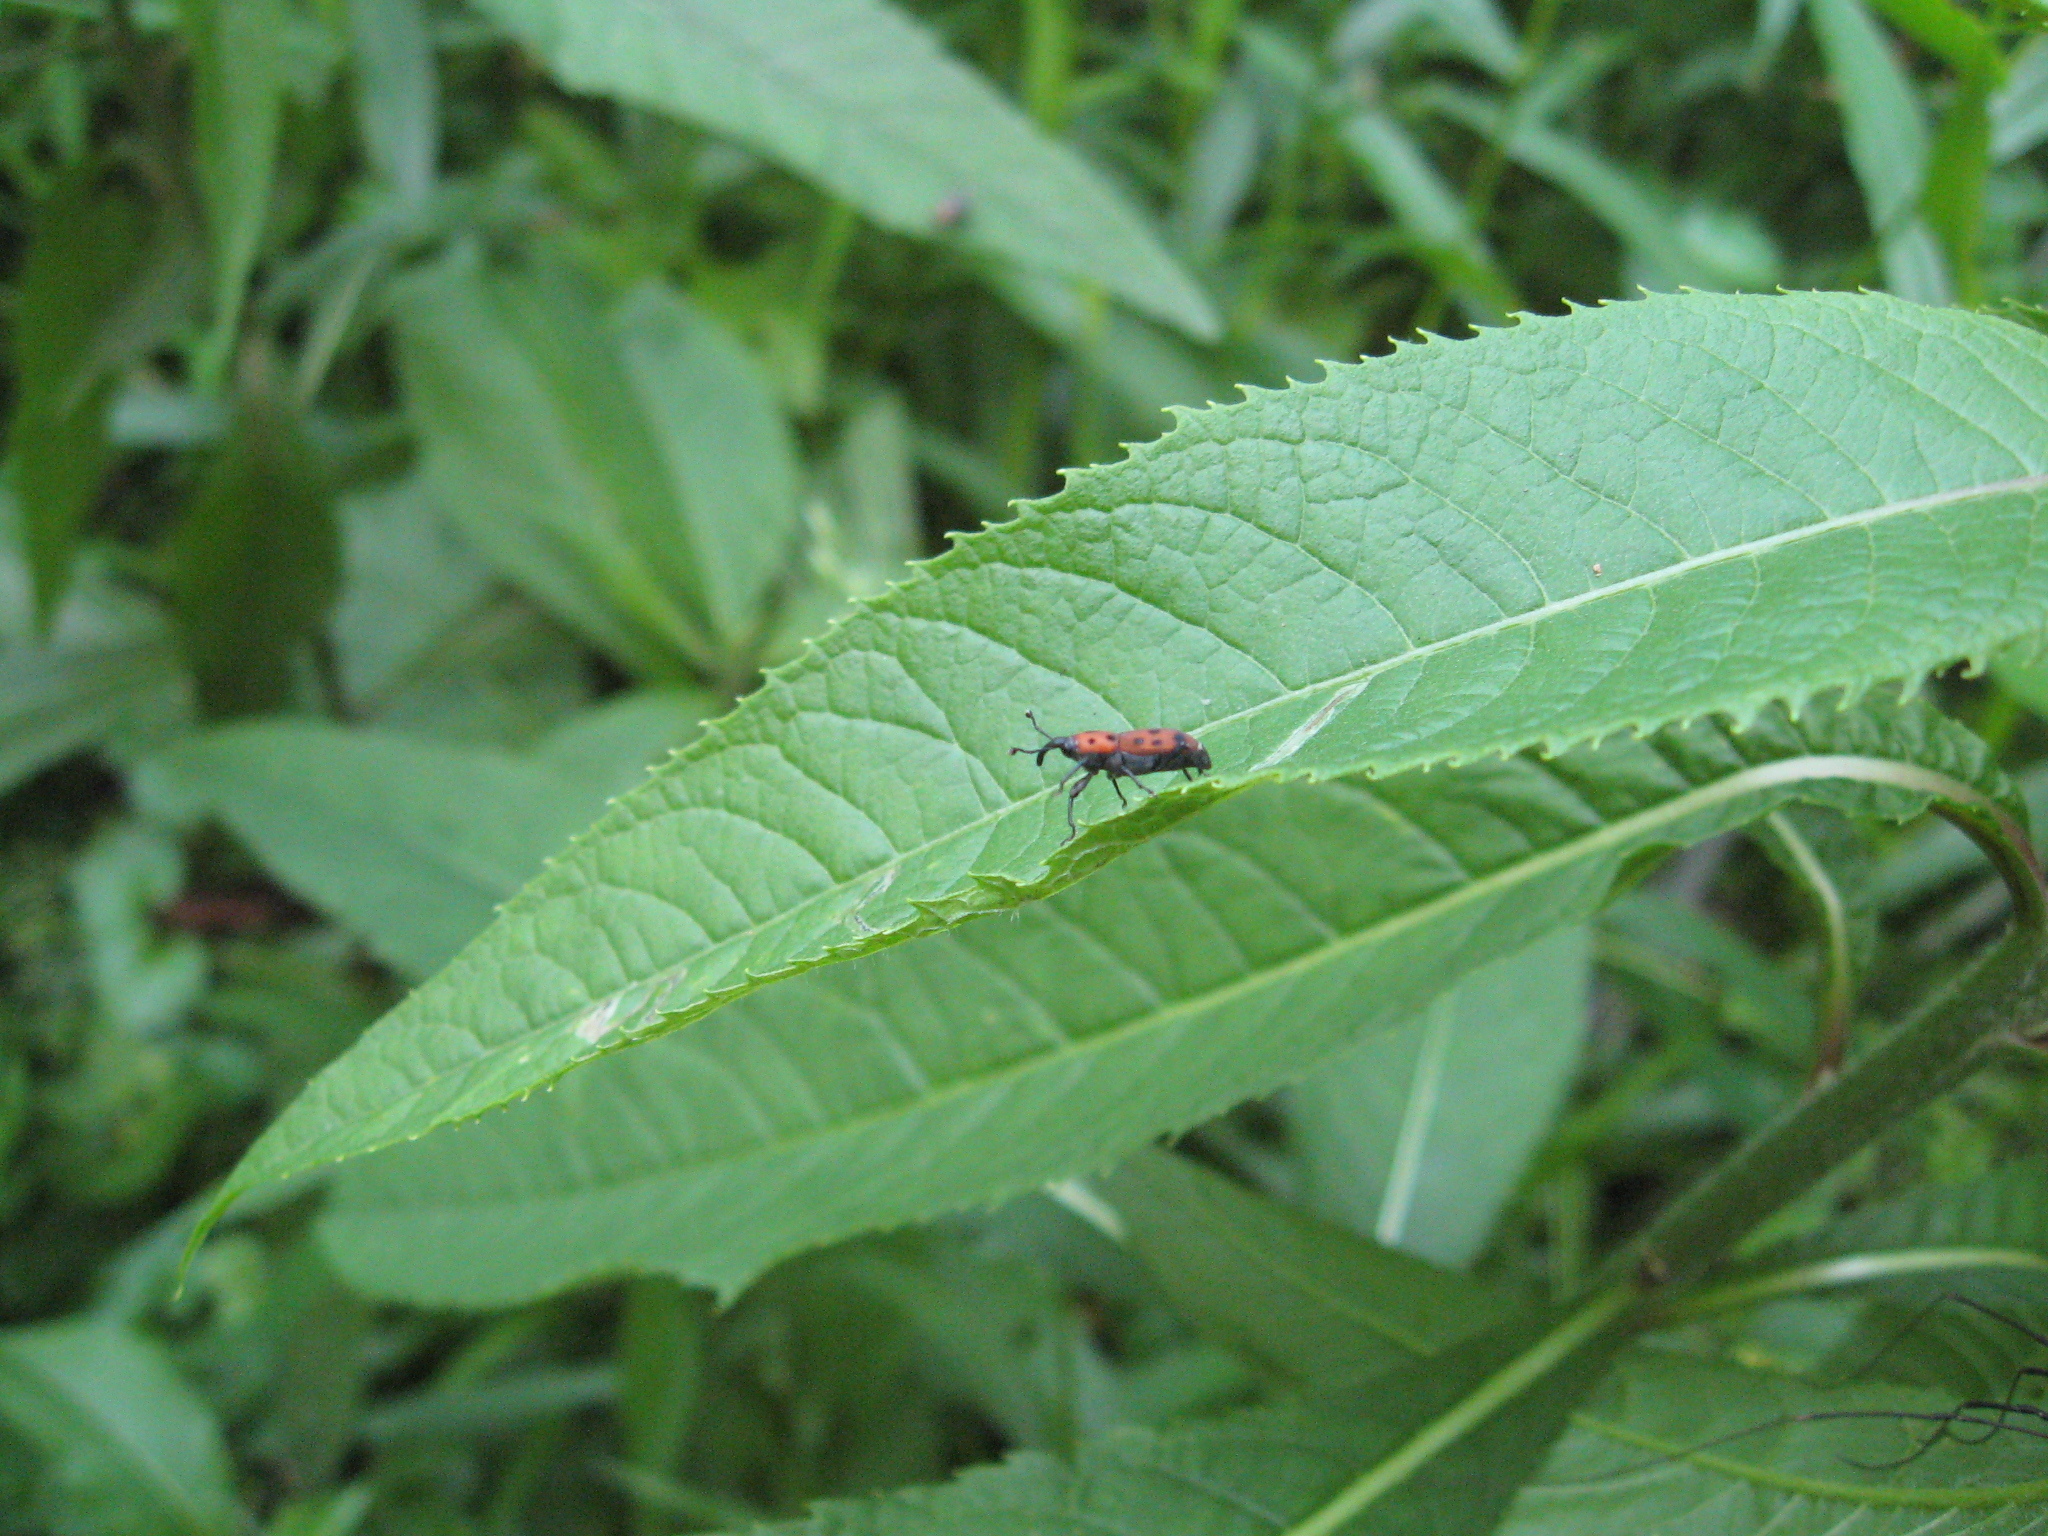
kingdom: Animalia
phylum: Arthropoda
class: Insecta
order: Coleoptera
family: Dryophthoridae
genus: Rhodobaenus
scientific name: Rhodobaenus tredecimpunctatus
